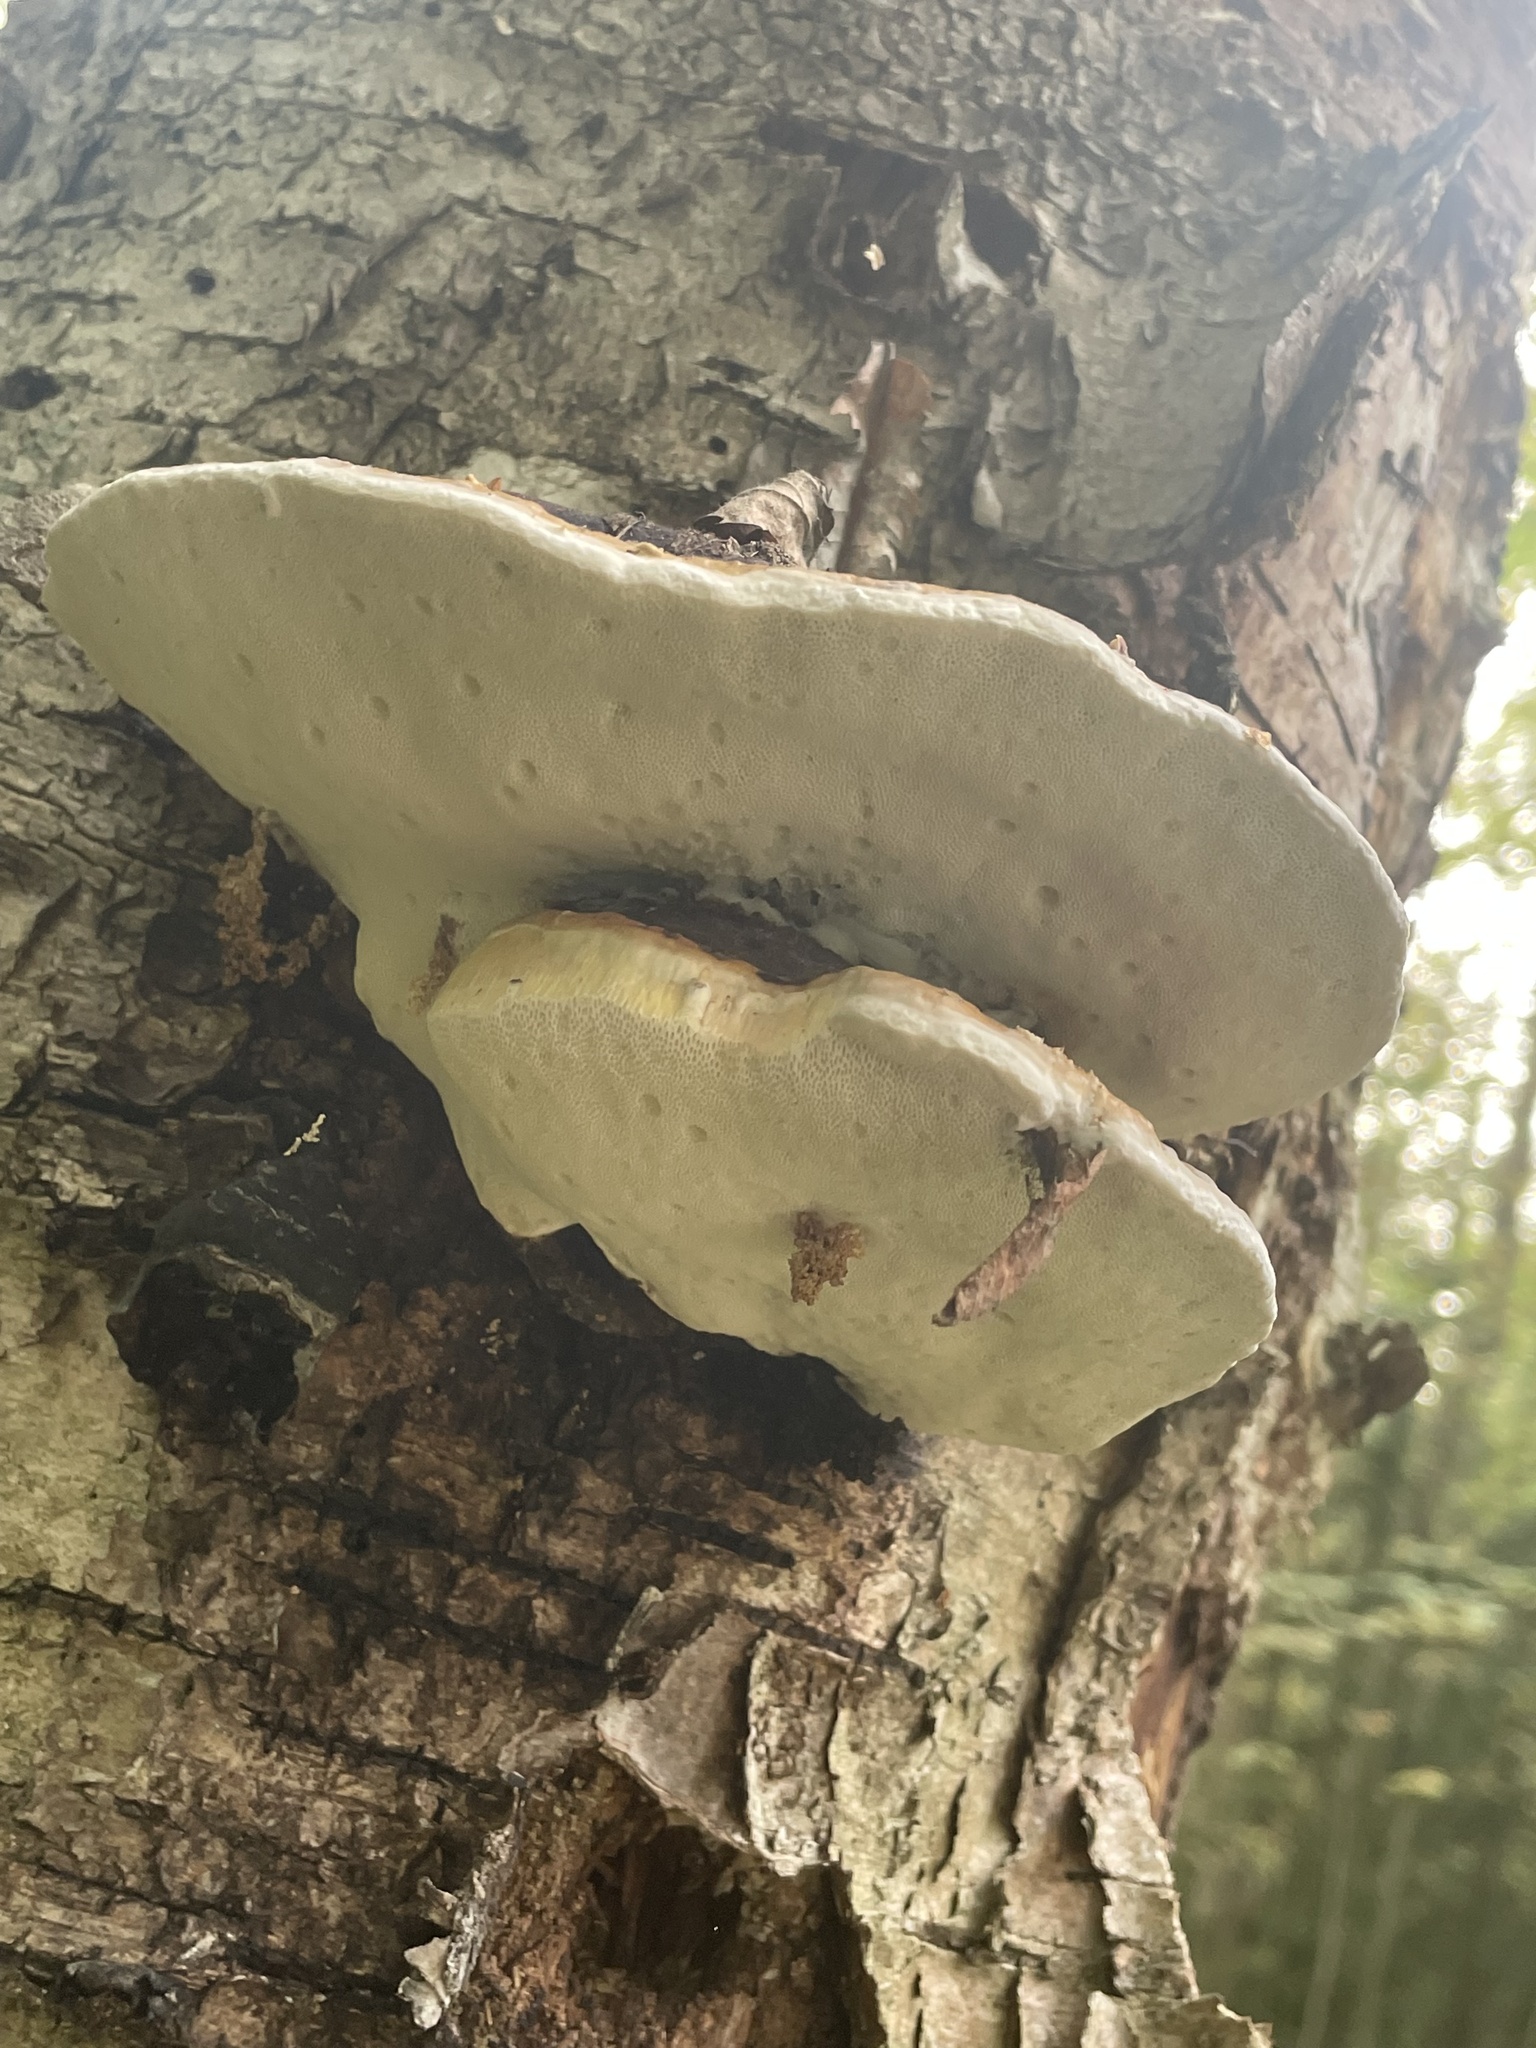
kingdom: Fungi
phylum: Basidiomycota
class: Agaricomycetes
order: Polyporales
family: Fomitopsidaceae
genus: Fomitopsis
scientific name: Fomitopsis pinicola
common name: Red-belted bracket
